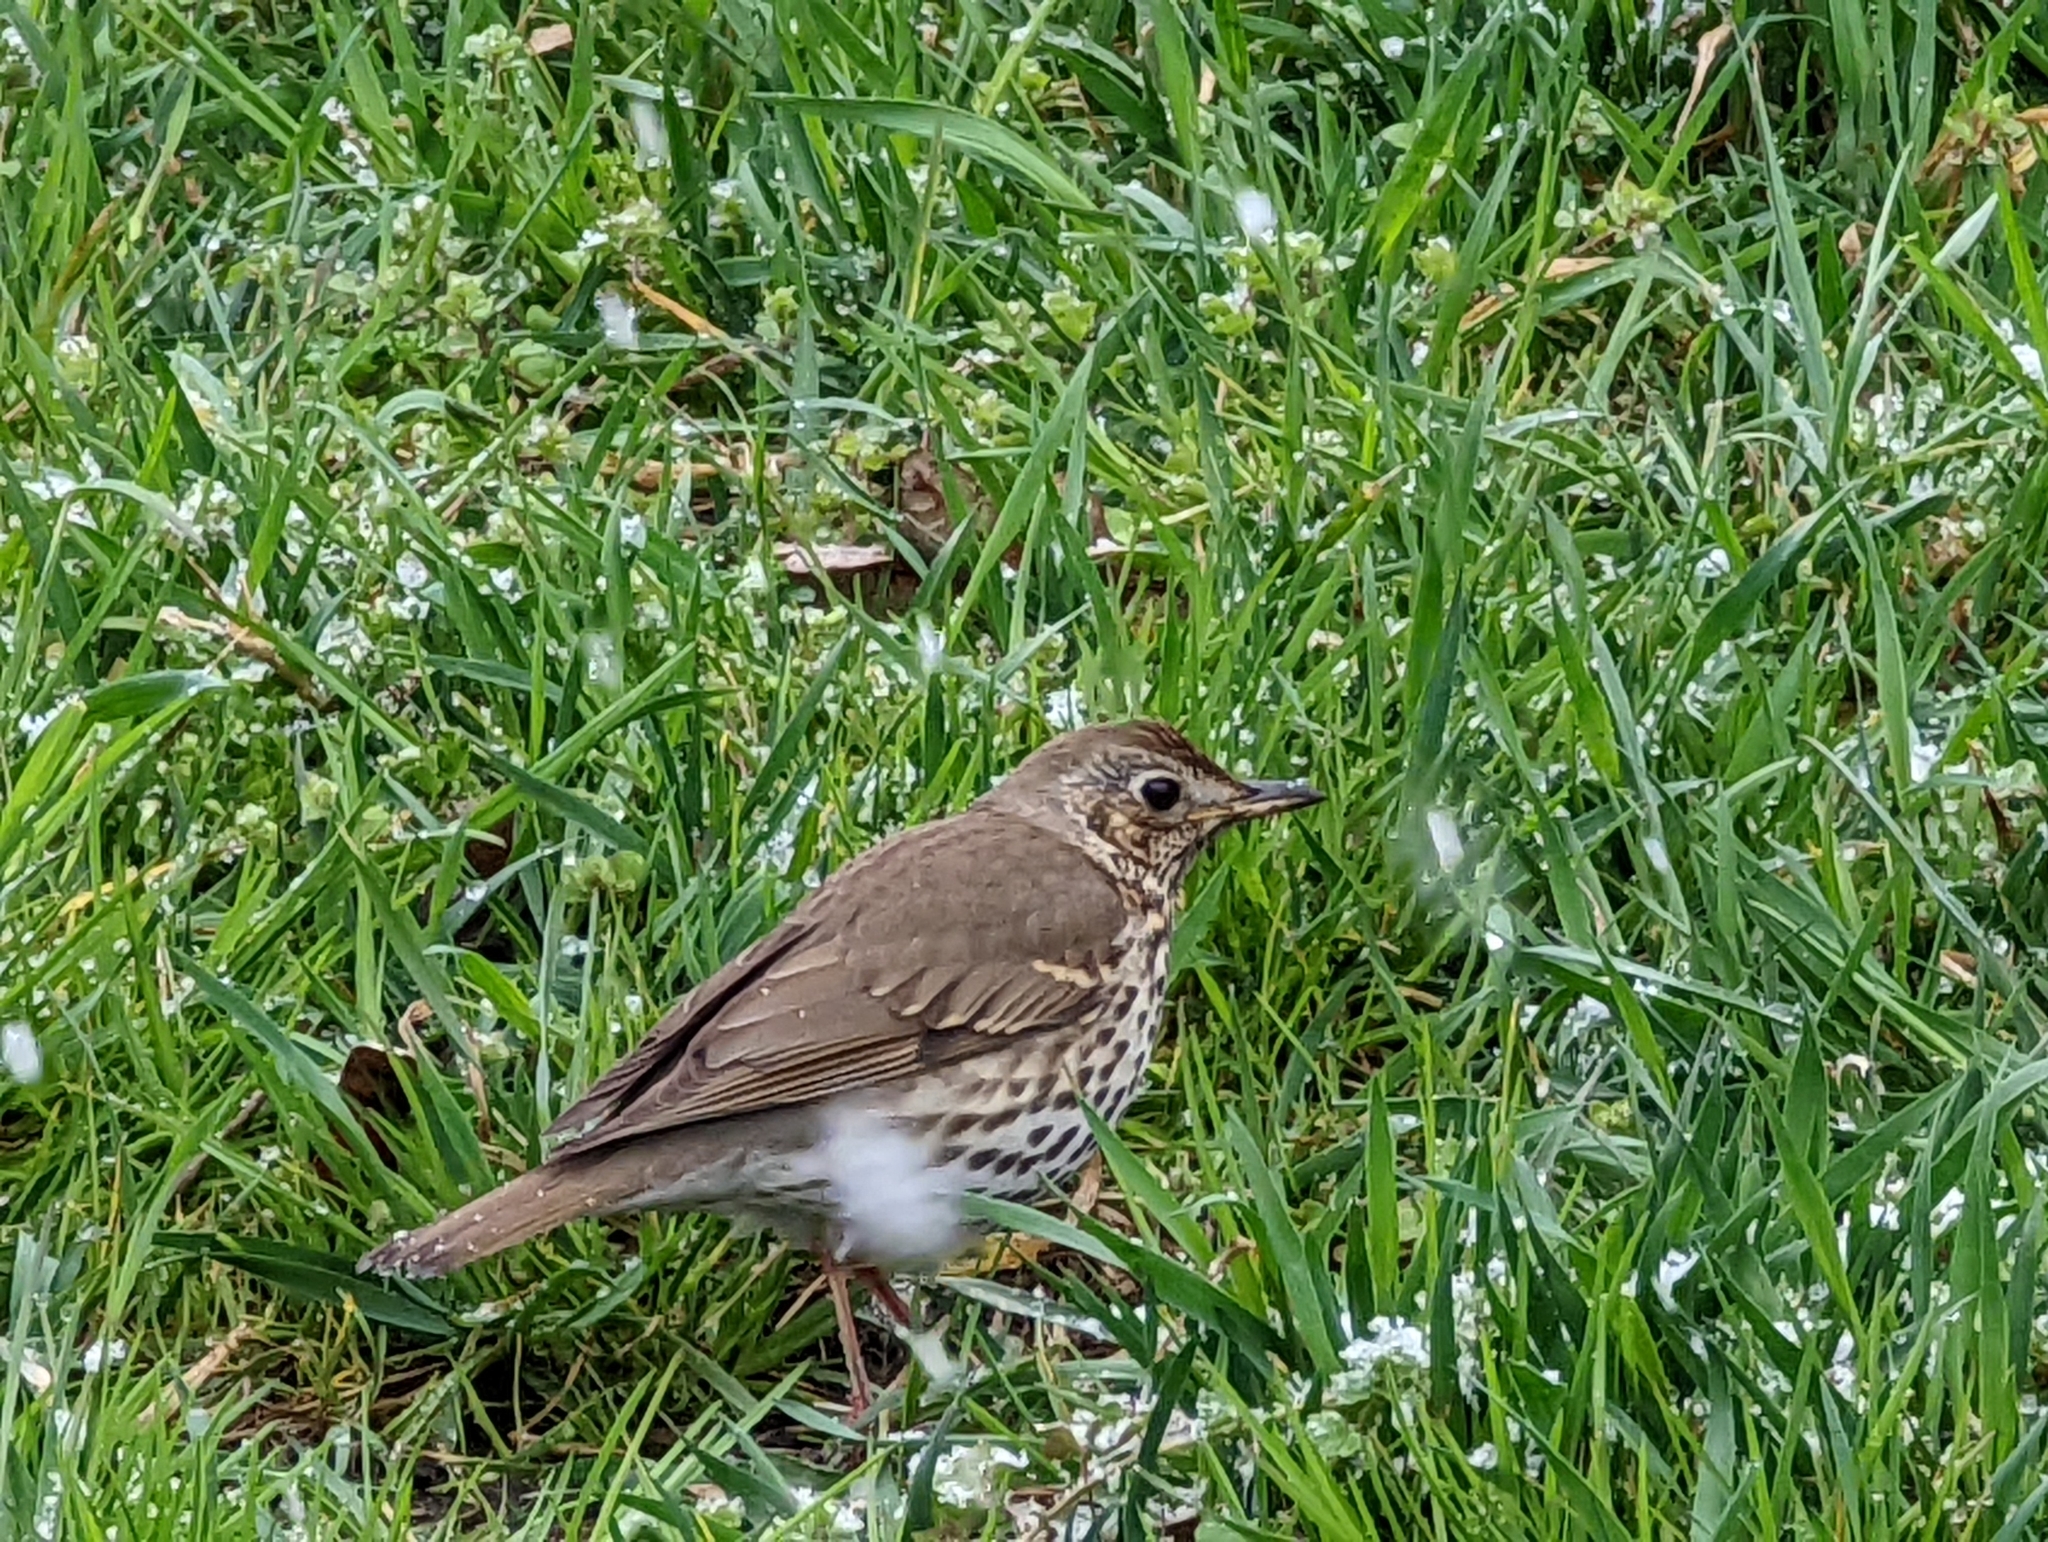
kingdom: Animalia
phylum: Chordata
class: Aves
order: Passeriformes
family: Turdidae
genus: Turdus
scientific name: Turdus philomelos
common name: Song thrush
